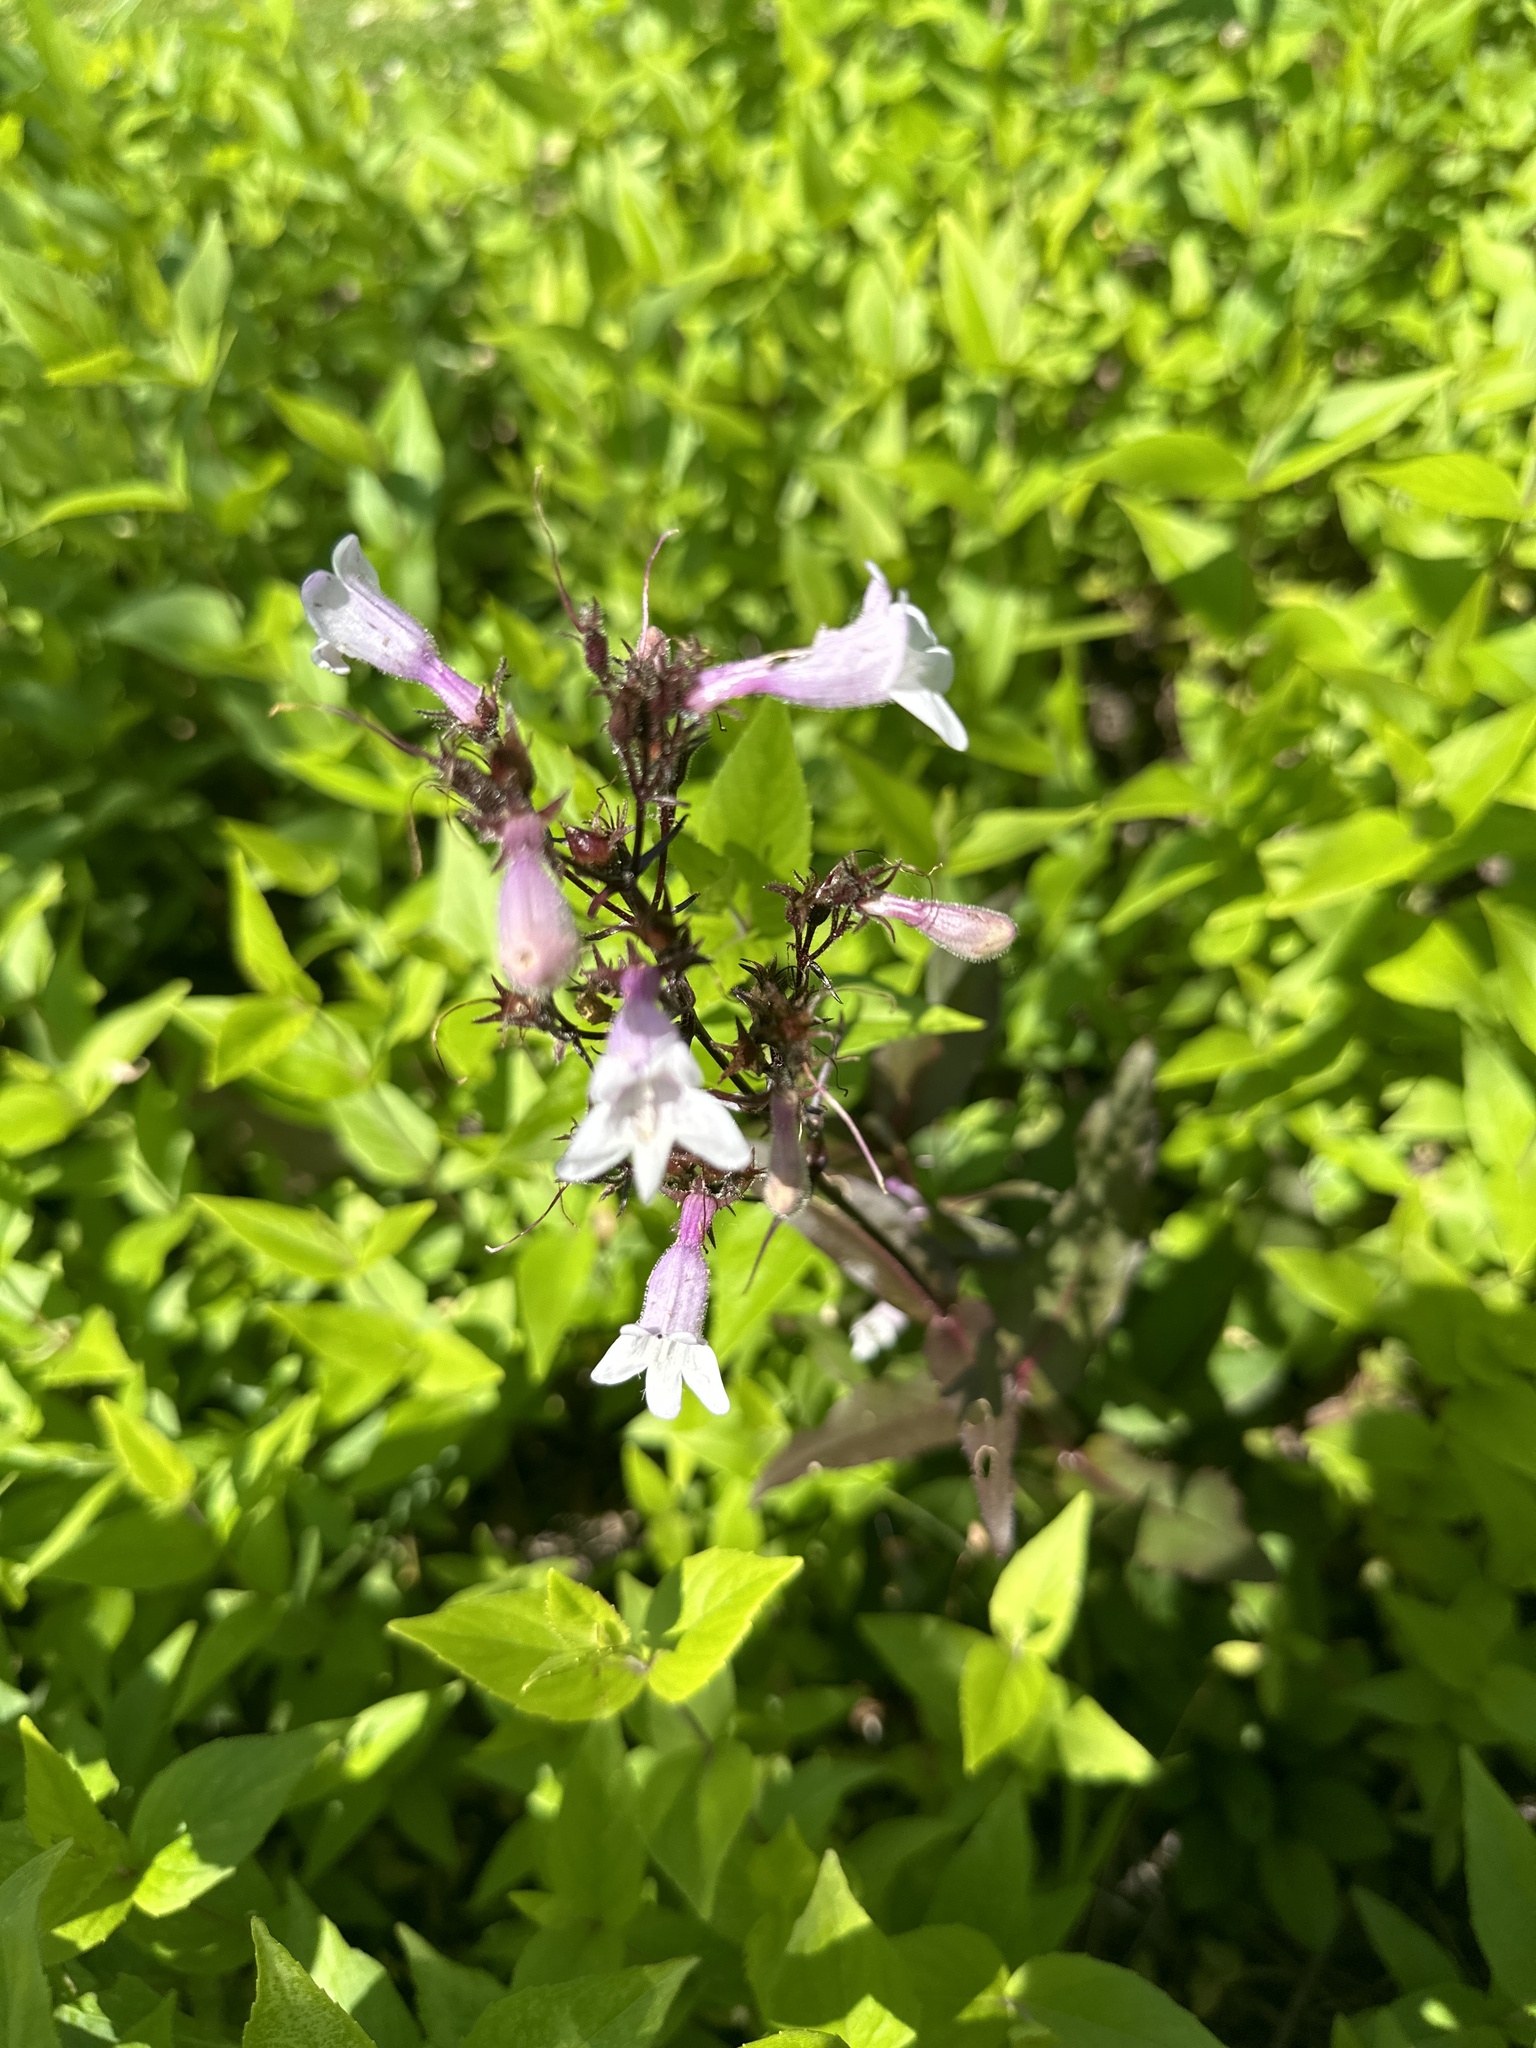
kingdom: Plantae
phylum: Tracheophyta
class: Magnoliopsida
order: Lamiales
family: Plantaginaceae
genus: Penstemon
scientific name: Penstemon digitalis
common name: Foxglove beardtongue
